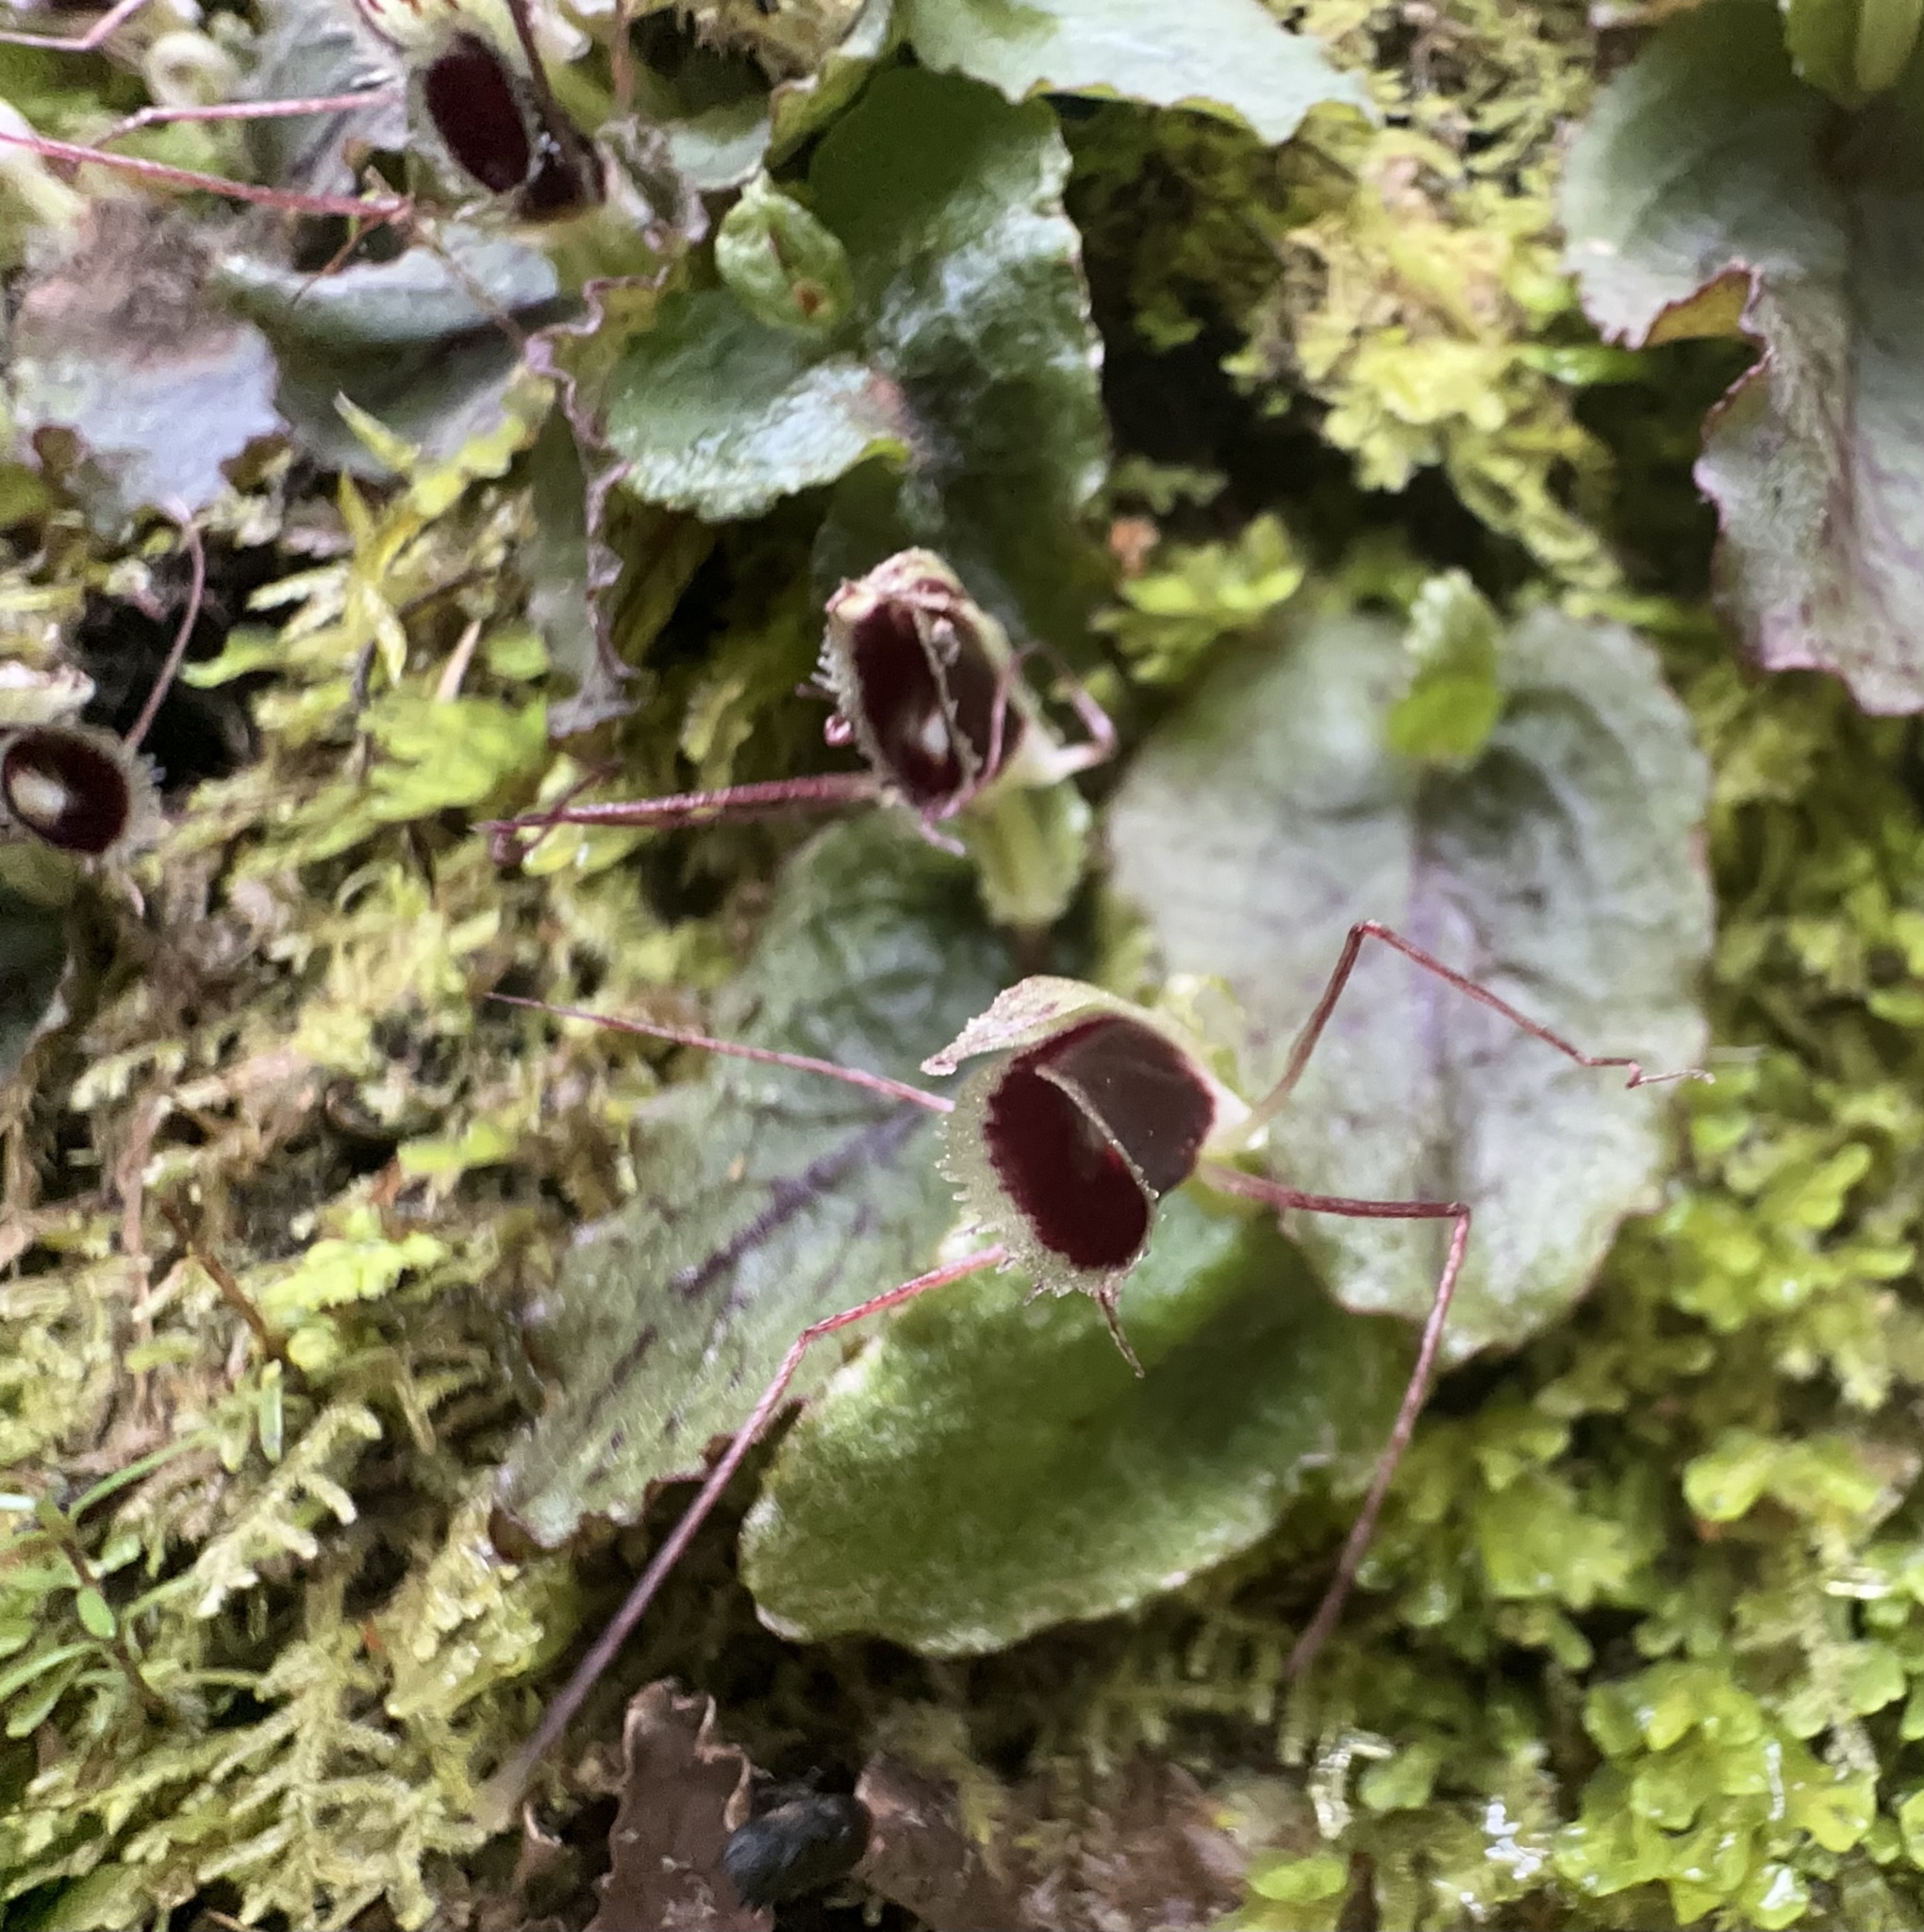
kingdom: Plantae
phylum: Tracheophyta
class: Liliopsida
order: Asparagales
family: Orchidaceae
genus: Corybas
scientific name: Corybas oblongus
